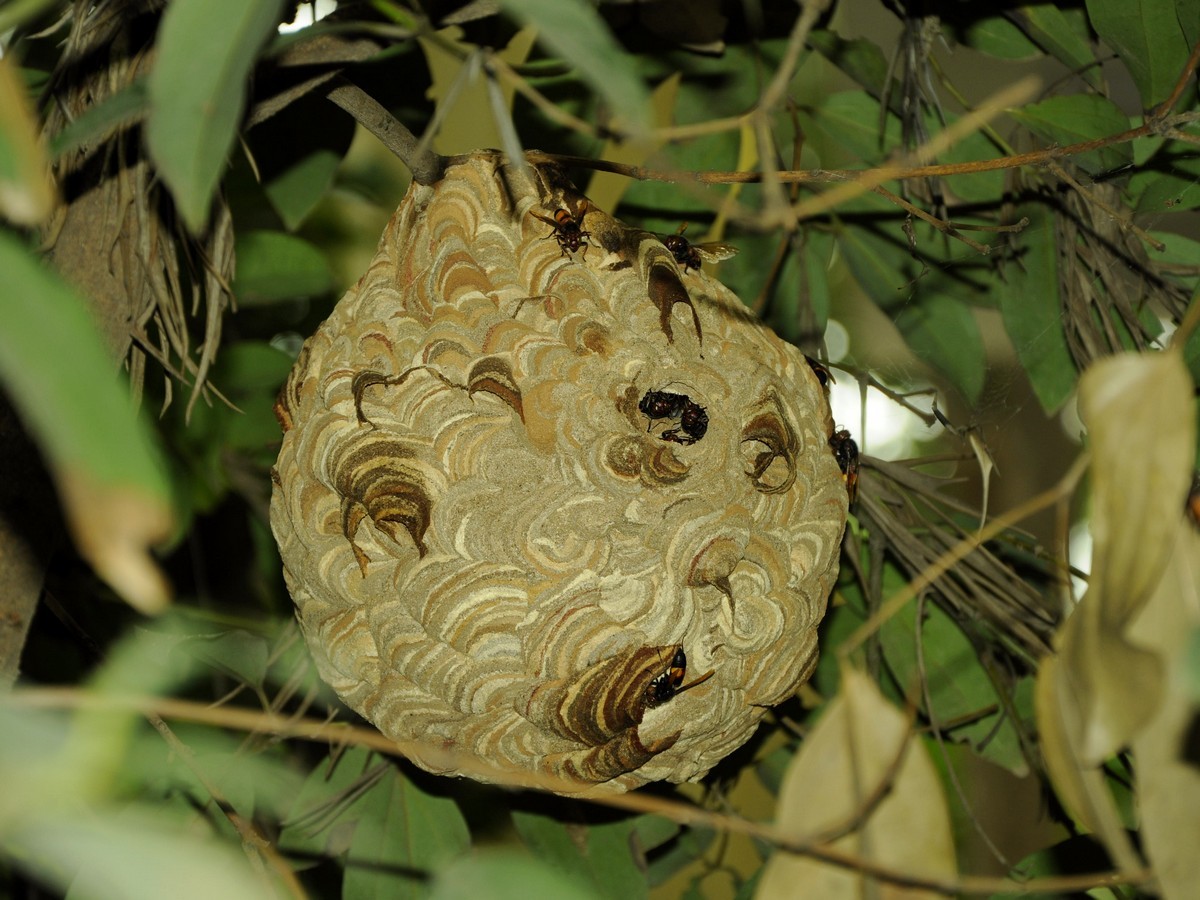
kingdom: Animalia
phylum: Arthropoda
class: Insecta
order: Hymenoptera
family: Vespidae
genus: Vespa
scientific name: Vespa affinis
